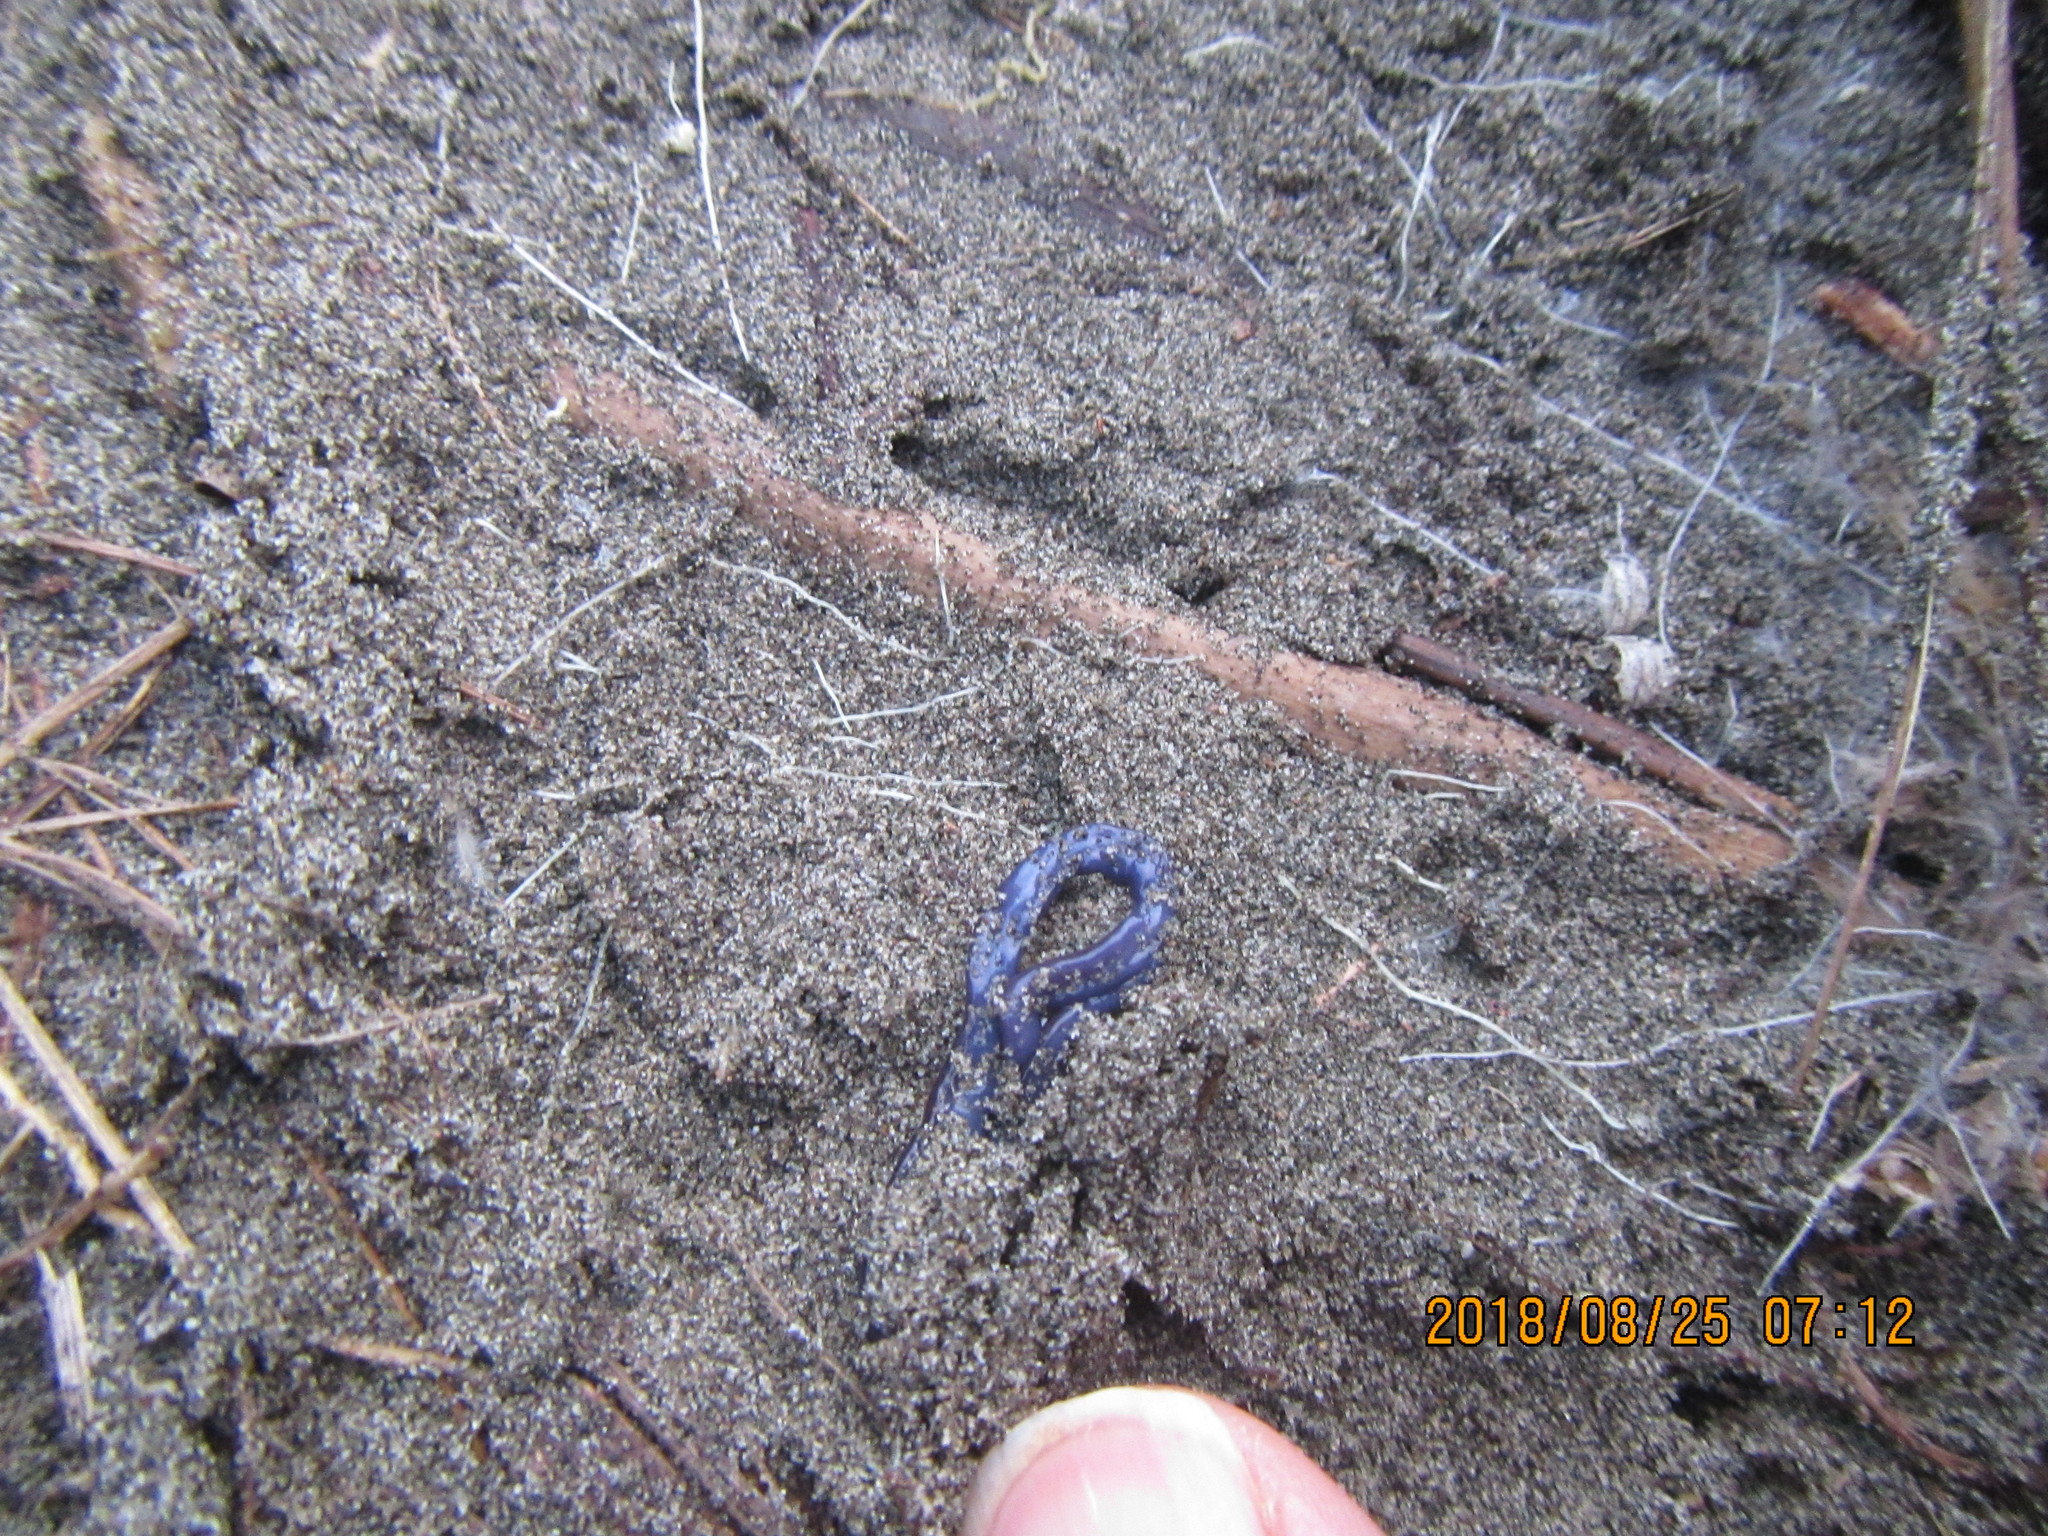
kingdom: Animalia
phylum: Platyhelminthes
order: Tricladida
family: Geoplanidae
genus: Caenoplana
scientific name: Caenoplana coerulea
